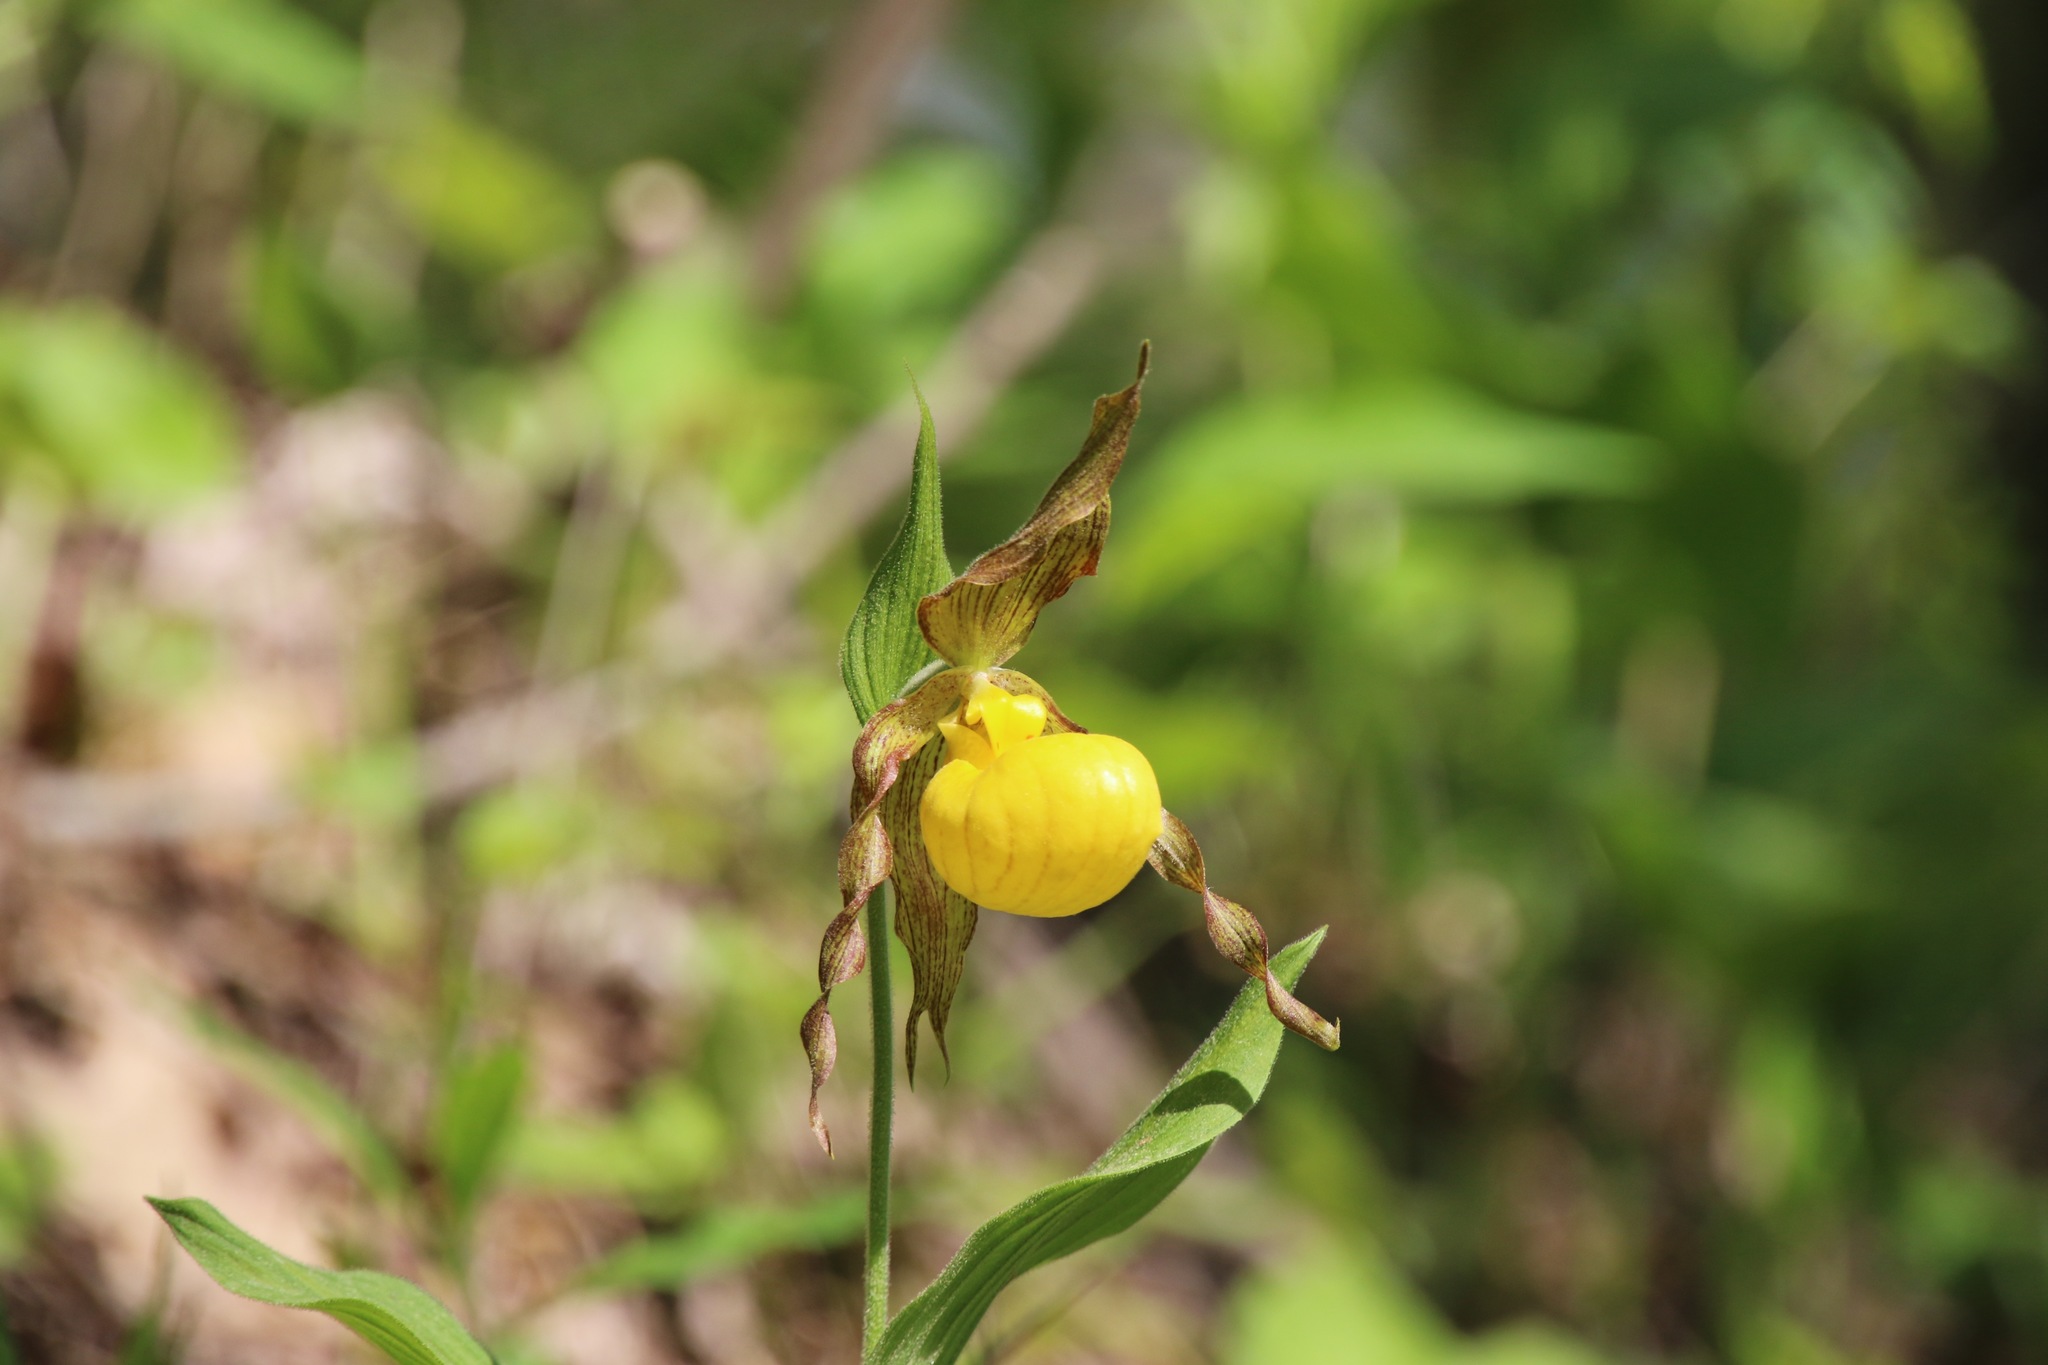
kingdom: Plantae
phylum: Tracheophyta
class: Liliopsida
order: Asparagales
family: Orchidaceae
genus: Cypripedium
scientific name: Cypripedium parviflorum
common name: American yellow lady's-slipper
